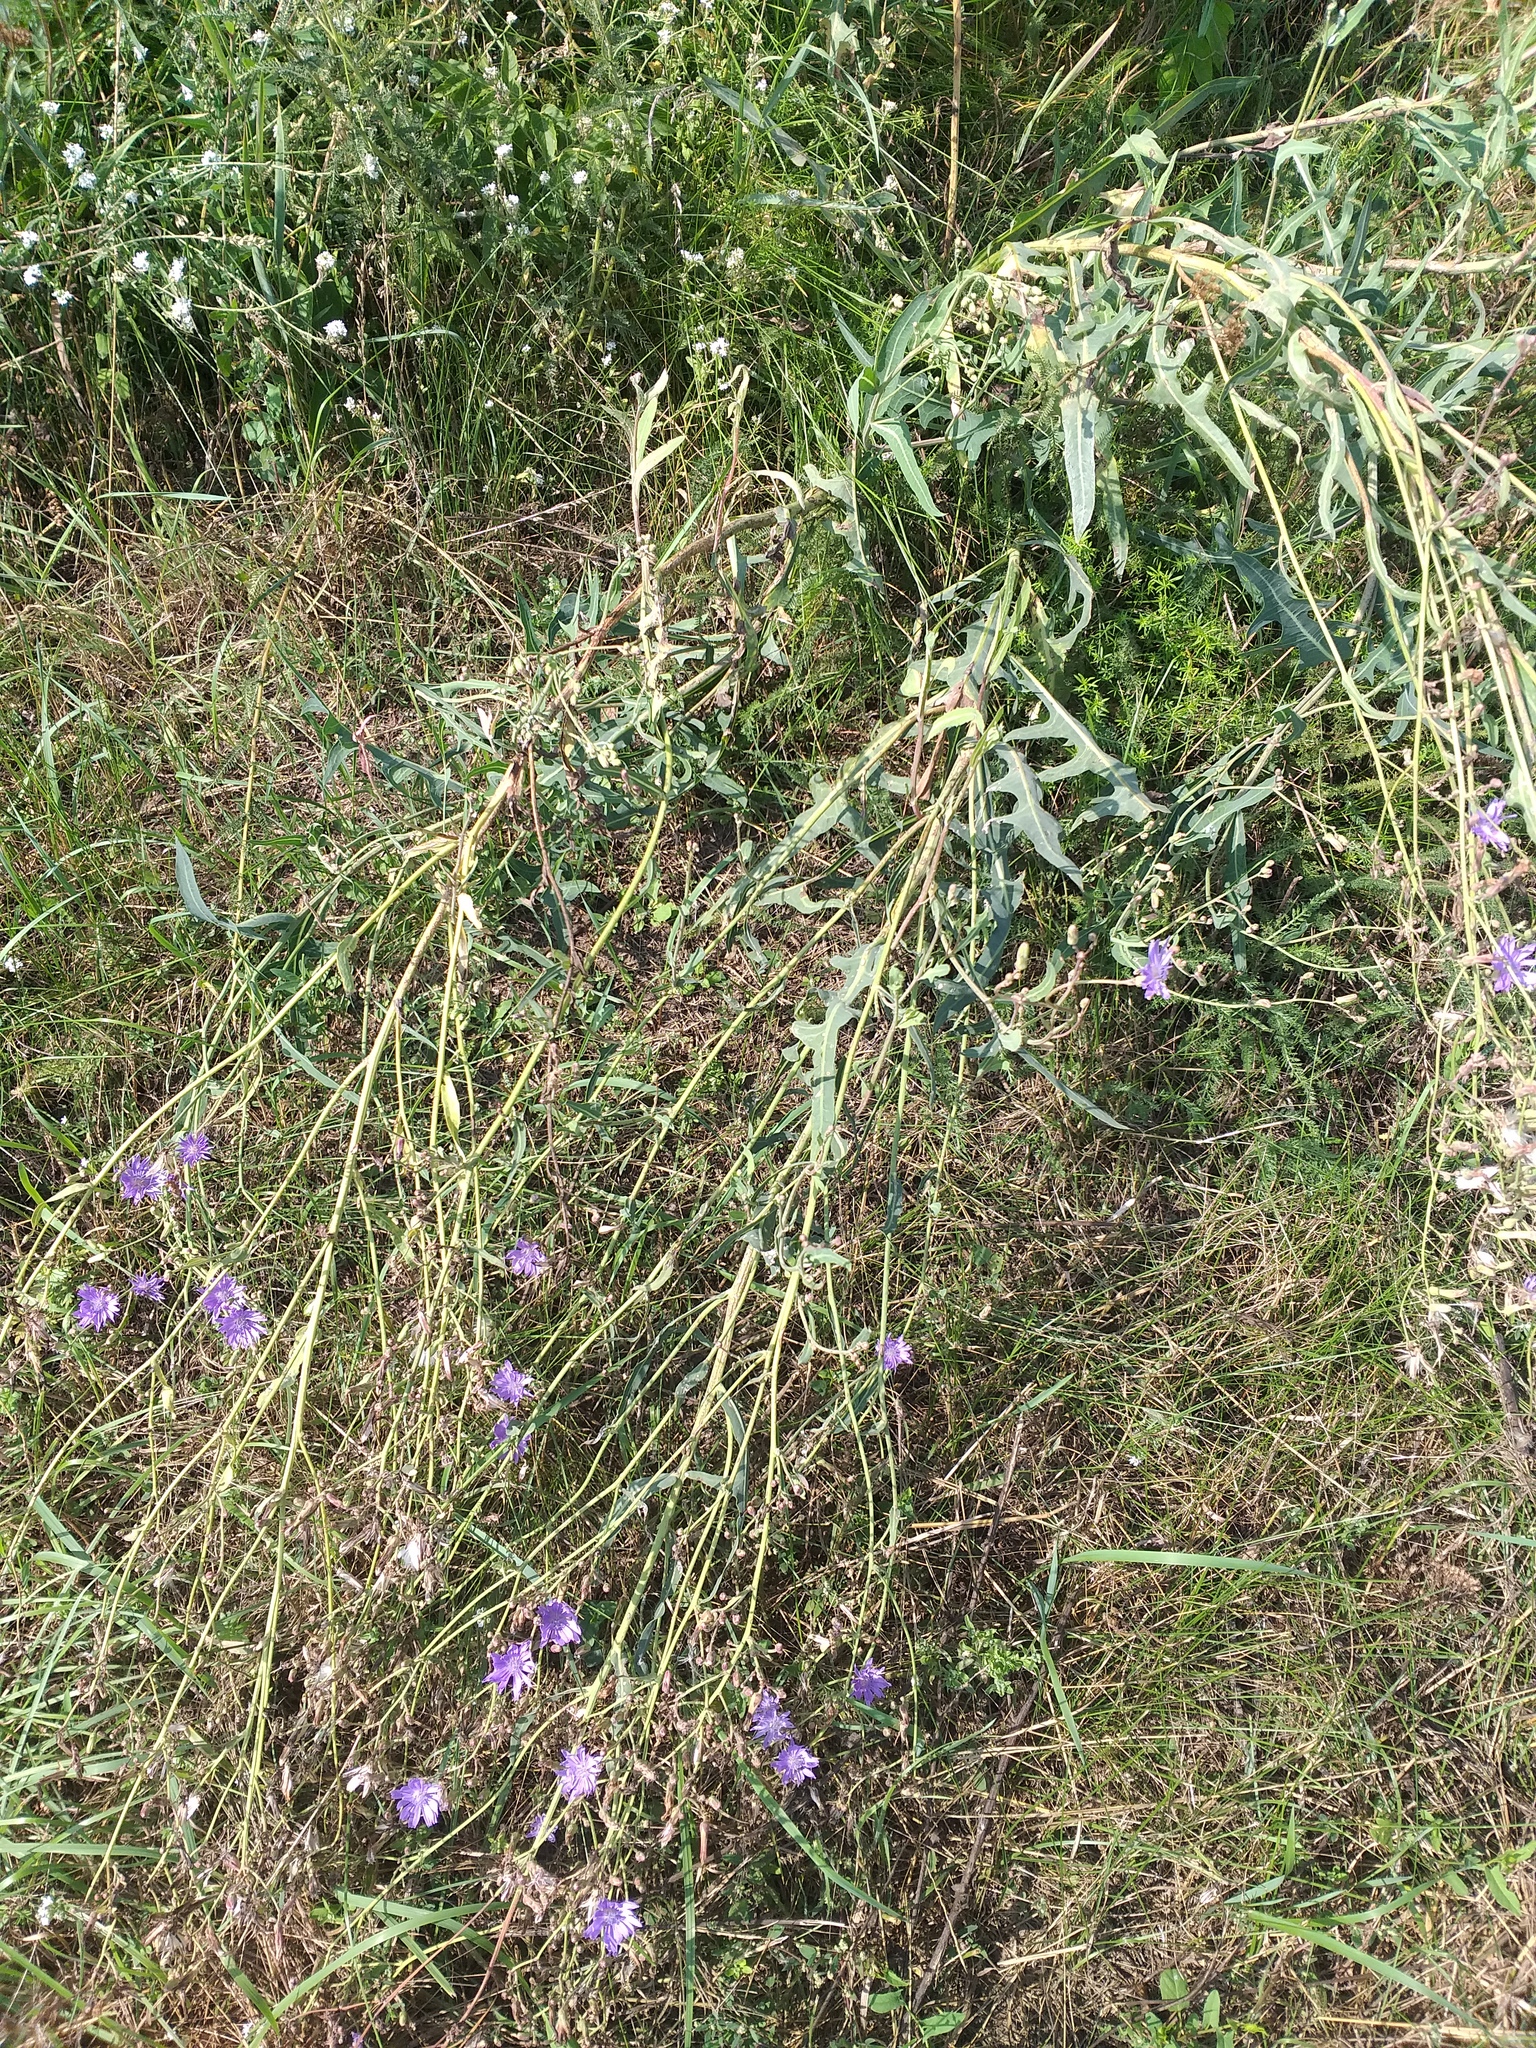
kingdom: Plantae
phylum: Tracheophyta
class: Magnoliopsida
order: Asterales
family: Asteraceae
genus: Lactuca
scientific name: Lactuca tatarica
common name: Blue lettuce
